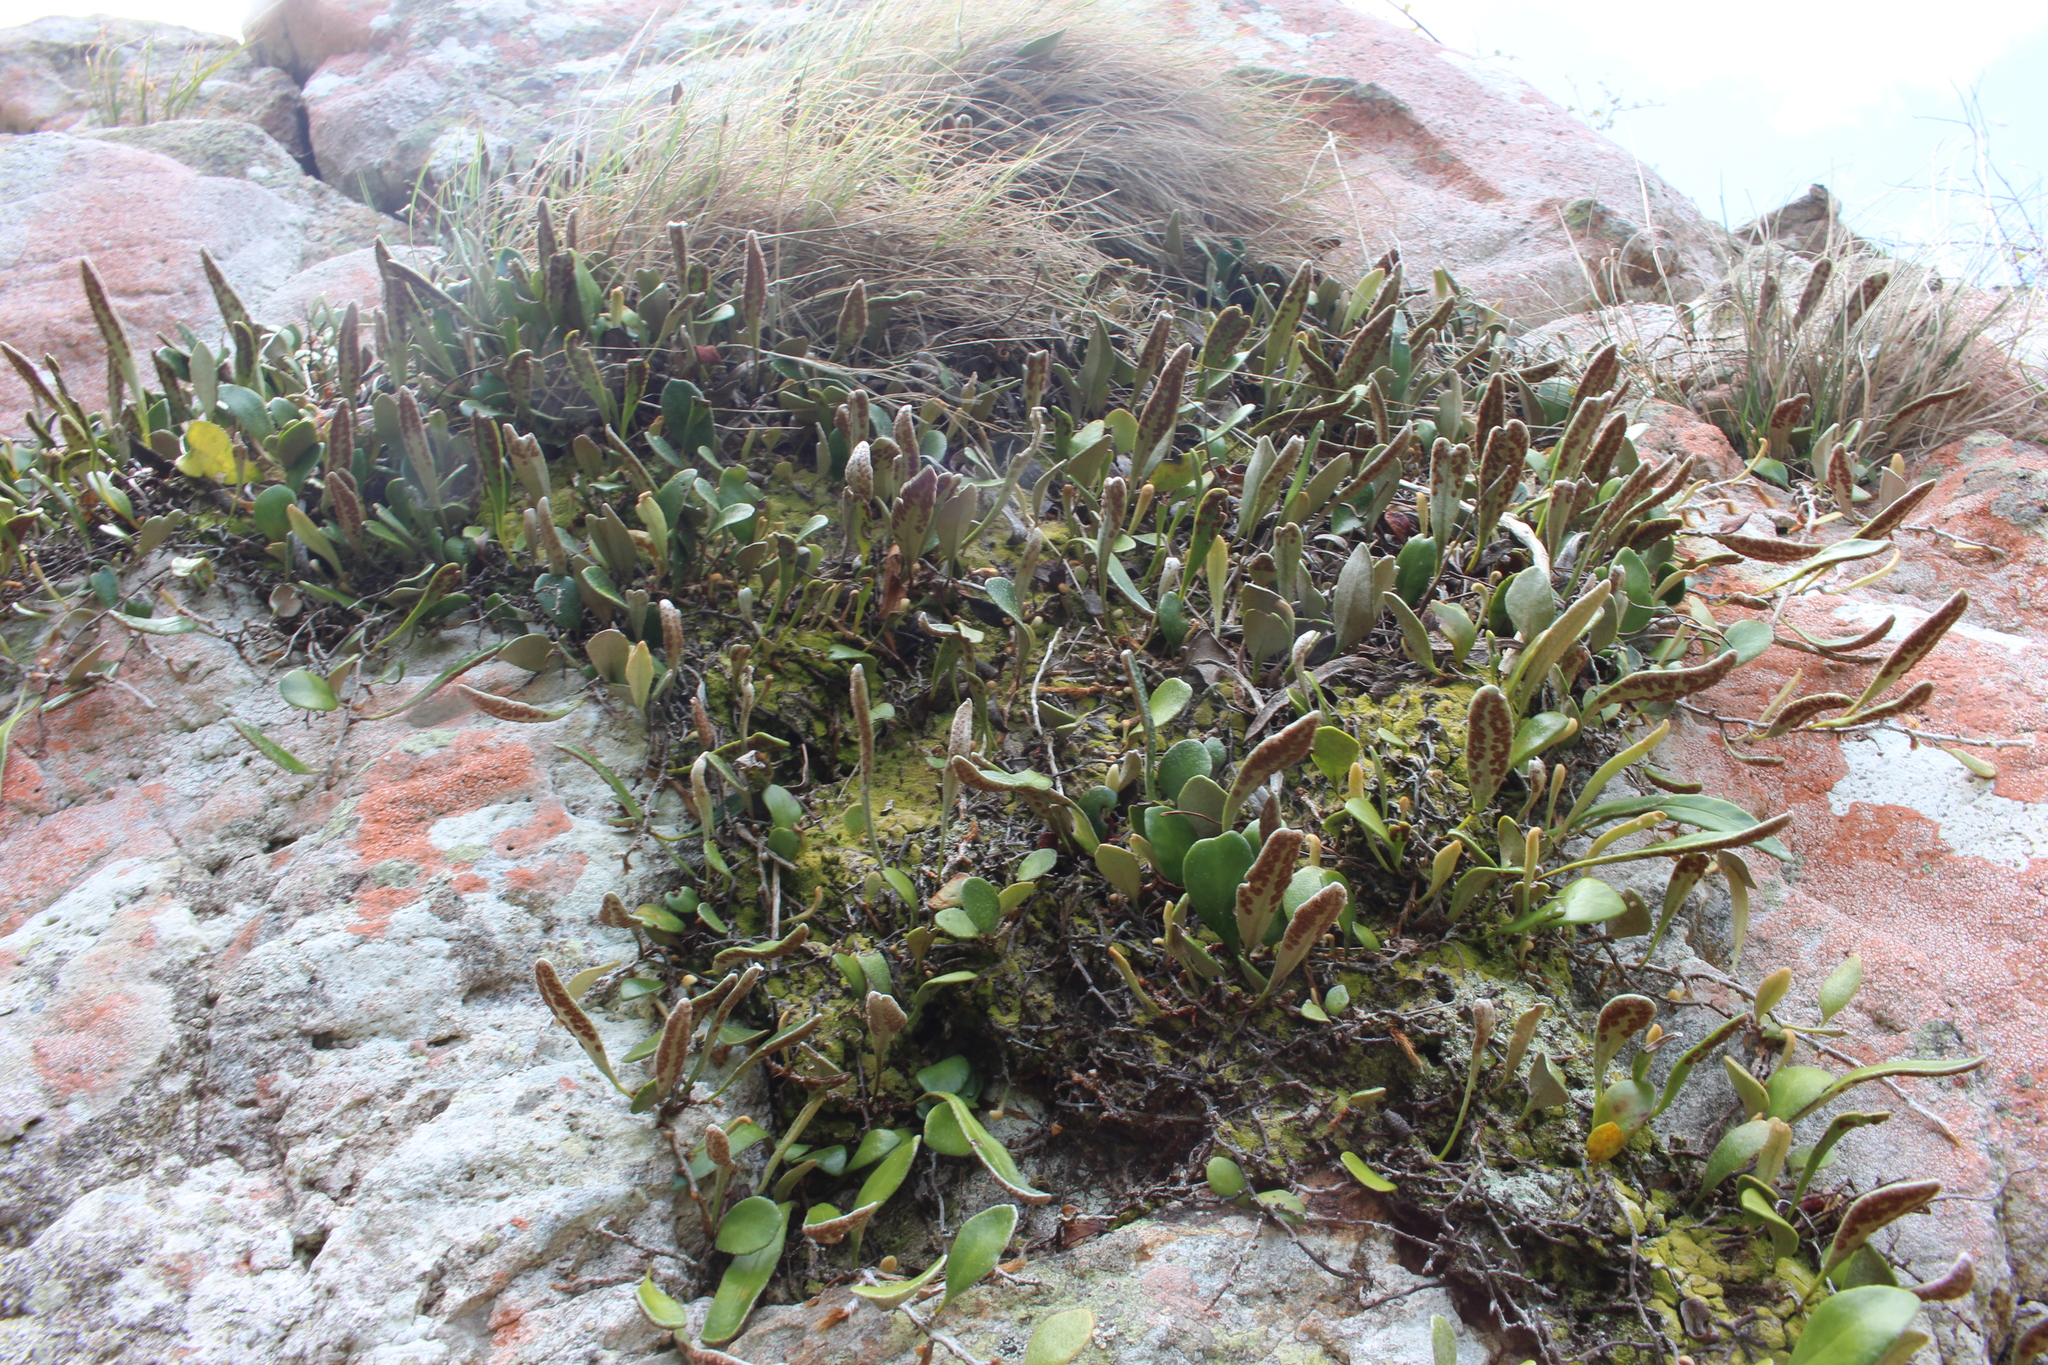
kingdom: Plantae
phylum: Tracheophyta
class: Polypodiopsida
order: Polypodiales
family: Polypodiaceae
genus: Pyrrosia
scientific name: Pyrrosia eleagnifolia
